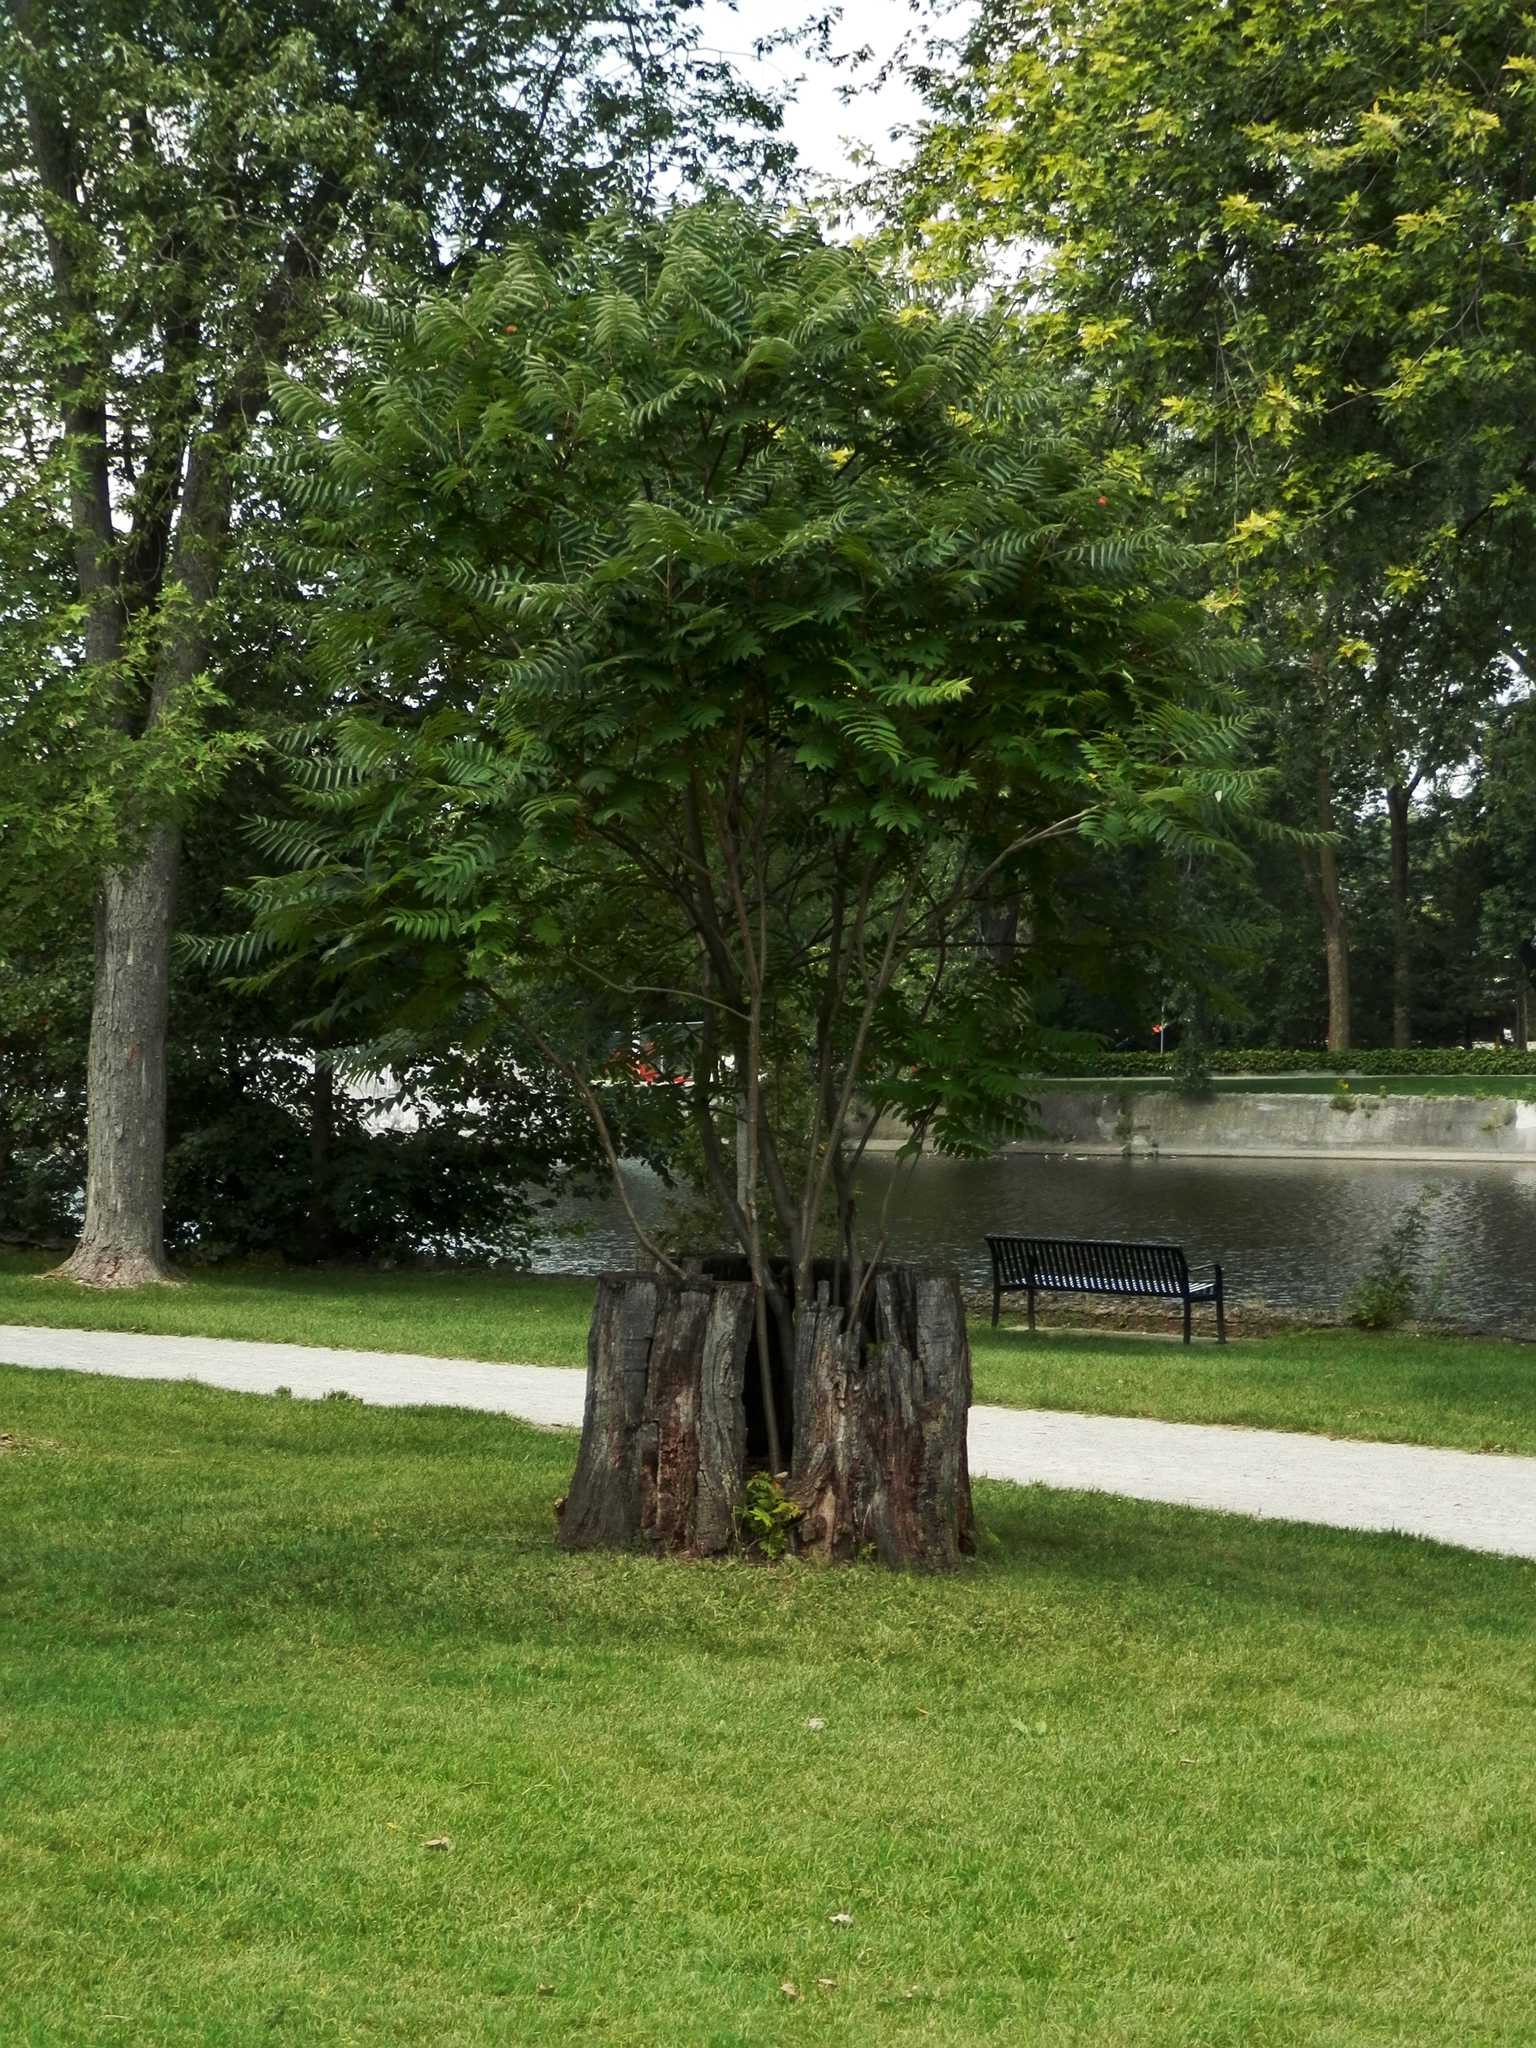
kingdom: Plantae
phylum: Tracheophyta
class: Magnoliopsida
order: Sapindales
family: Simaroubaceae
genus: Ailanthus
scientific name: Ailanthus altissima
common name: Tree-of-heaven
